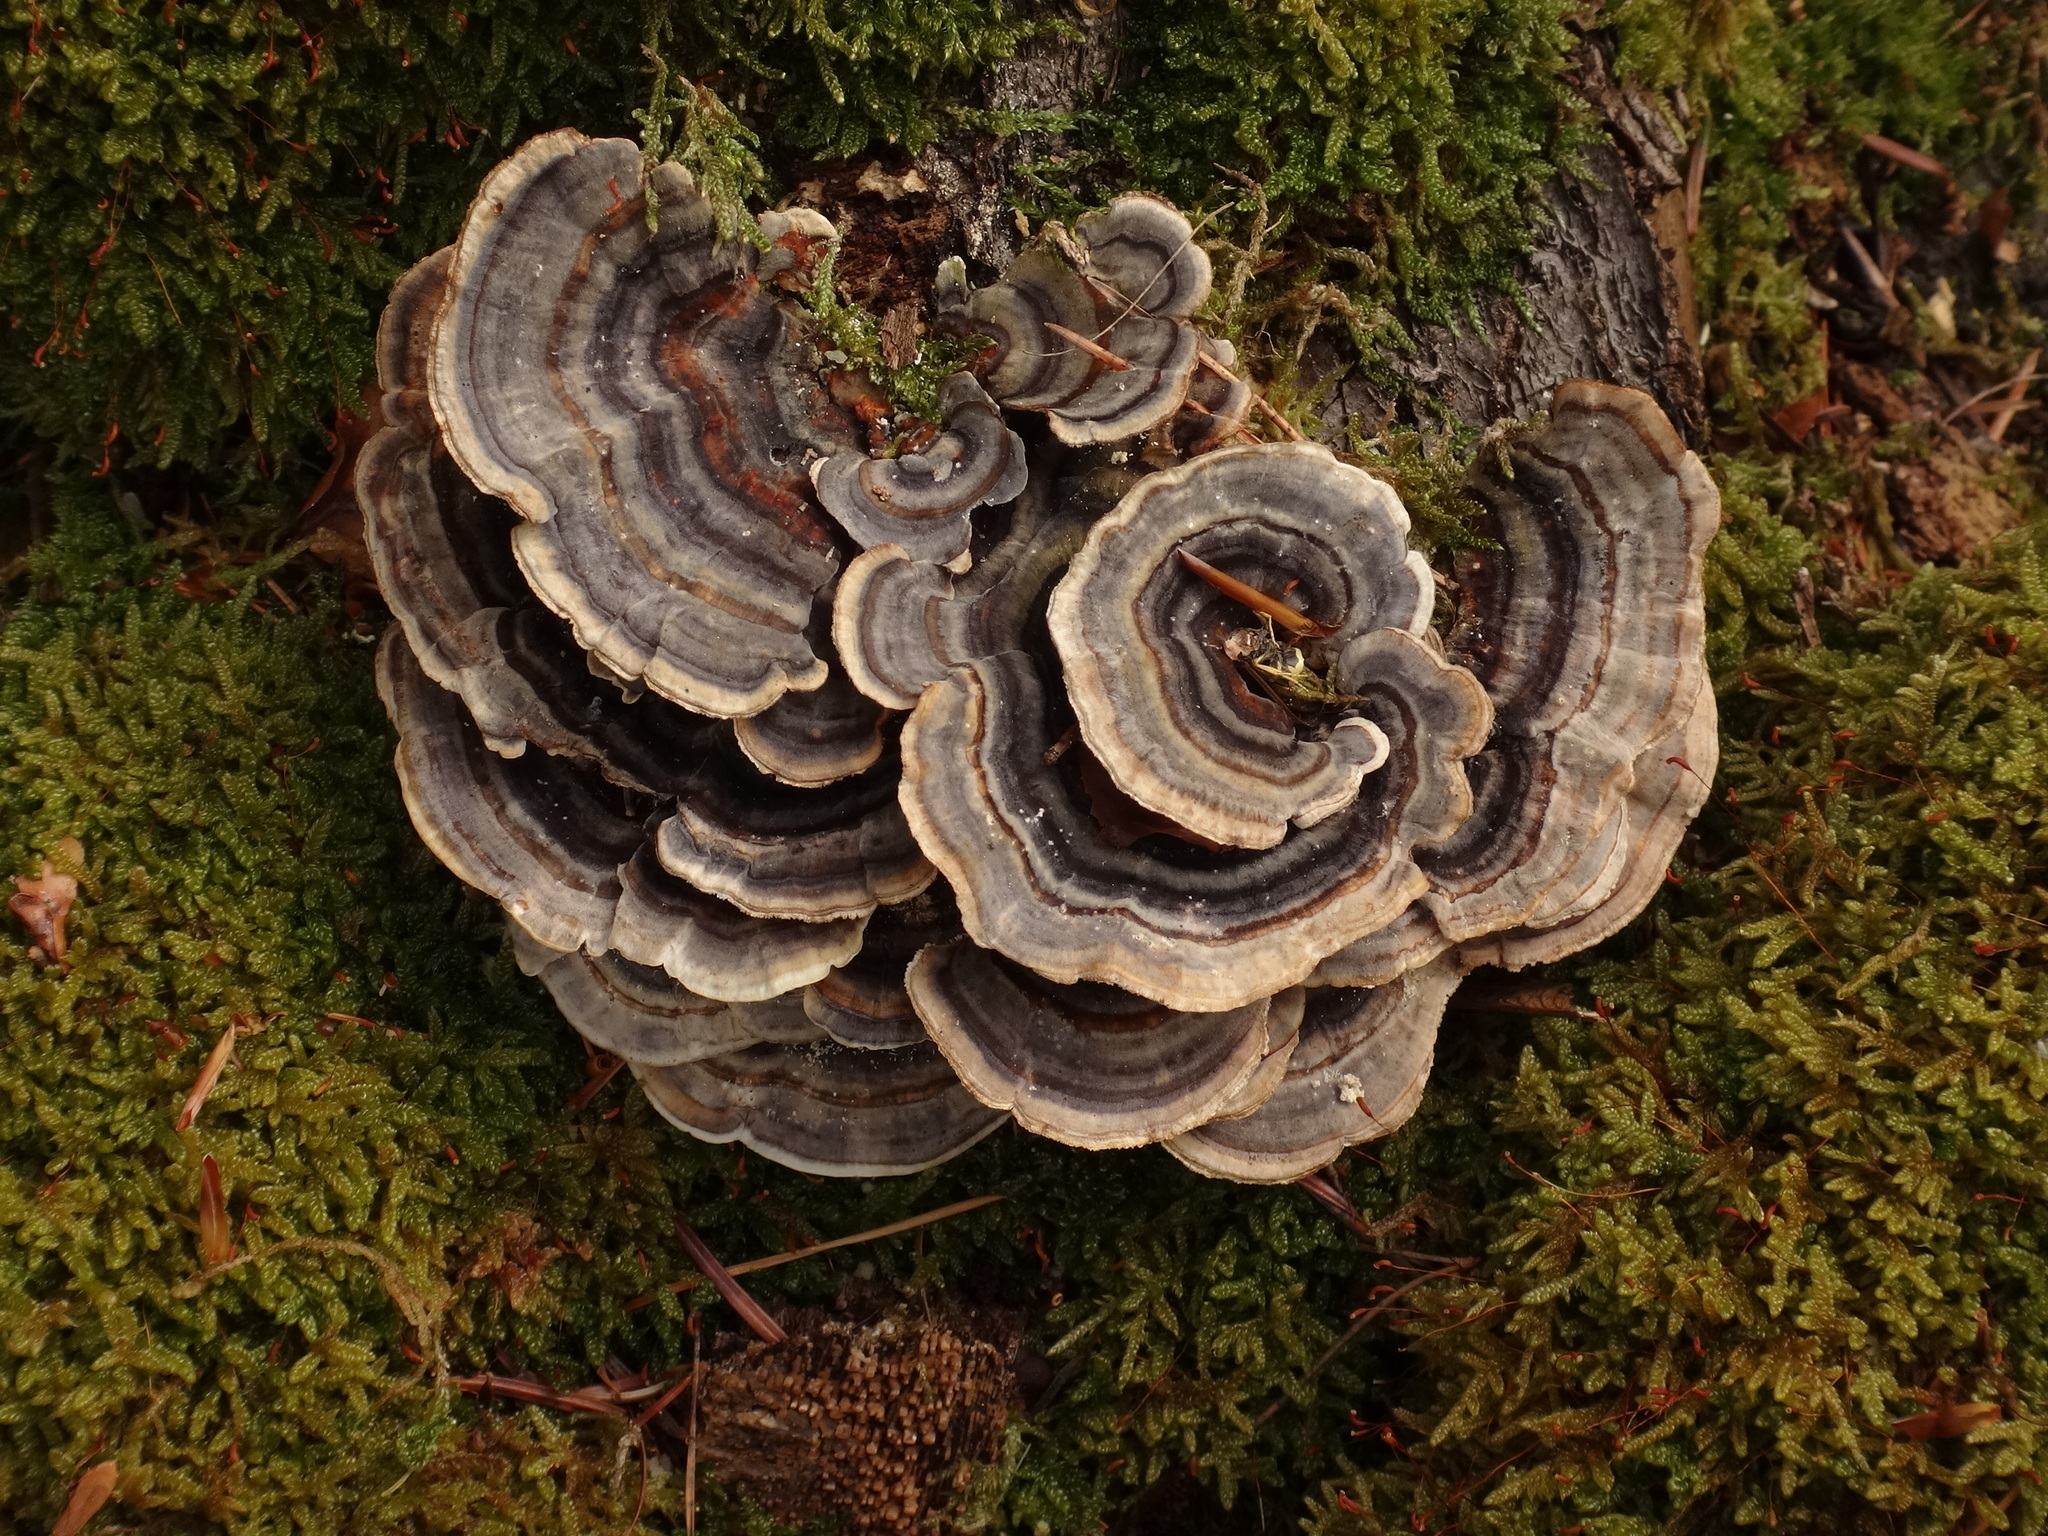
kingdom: Fungi
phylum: Basidiomycota
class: Agaricomycetes
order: Polyporales
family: Polyporaceae
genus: Trametes
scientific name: Trametes versicolor
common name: Turkeytail
